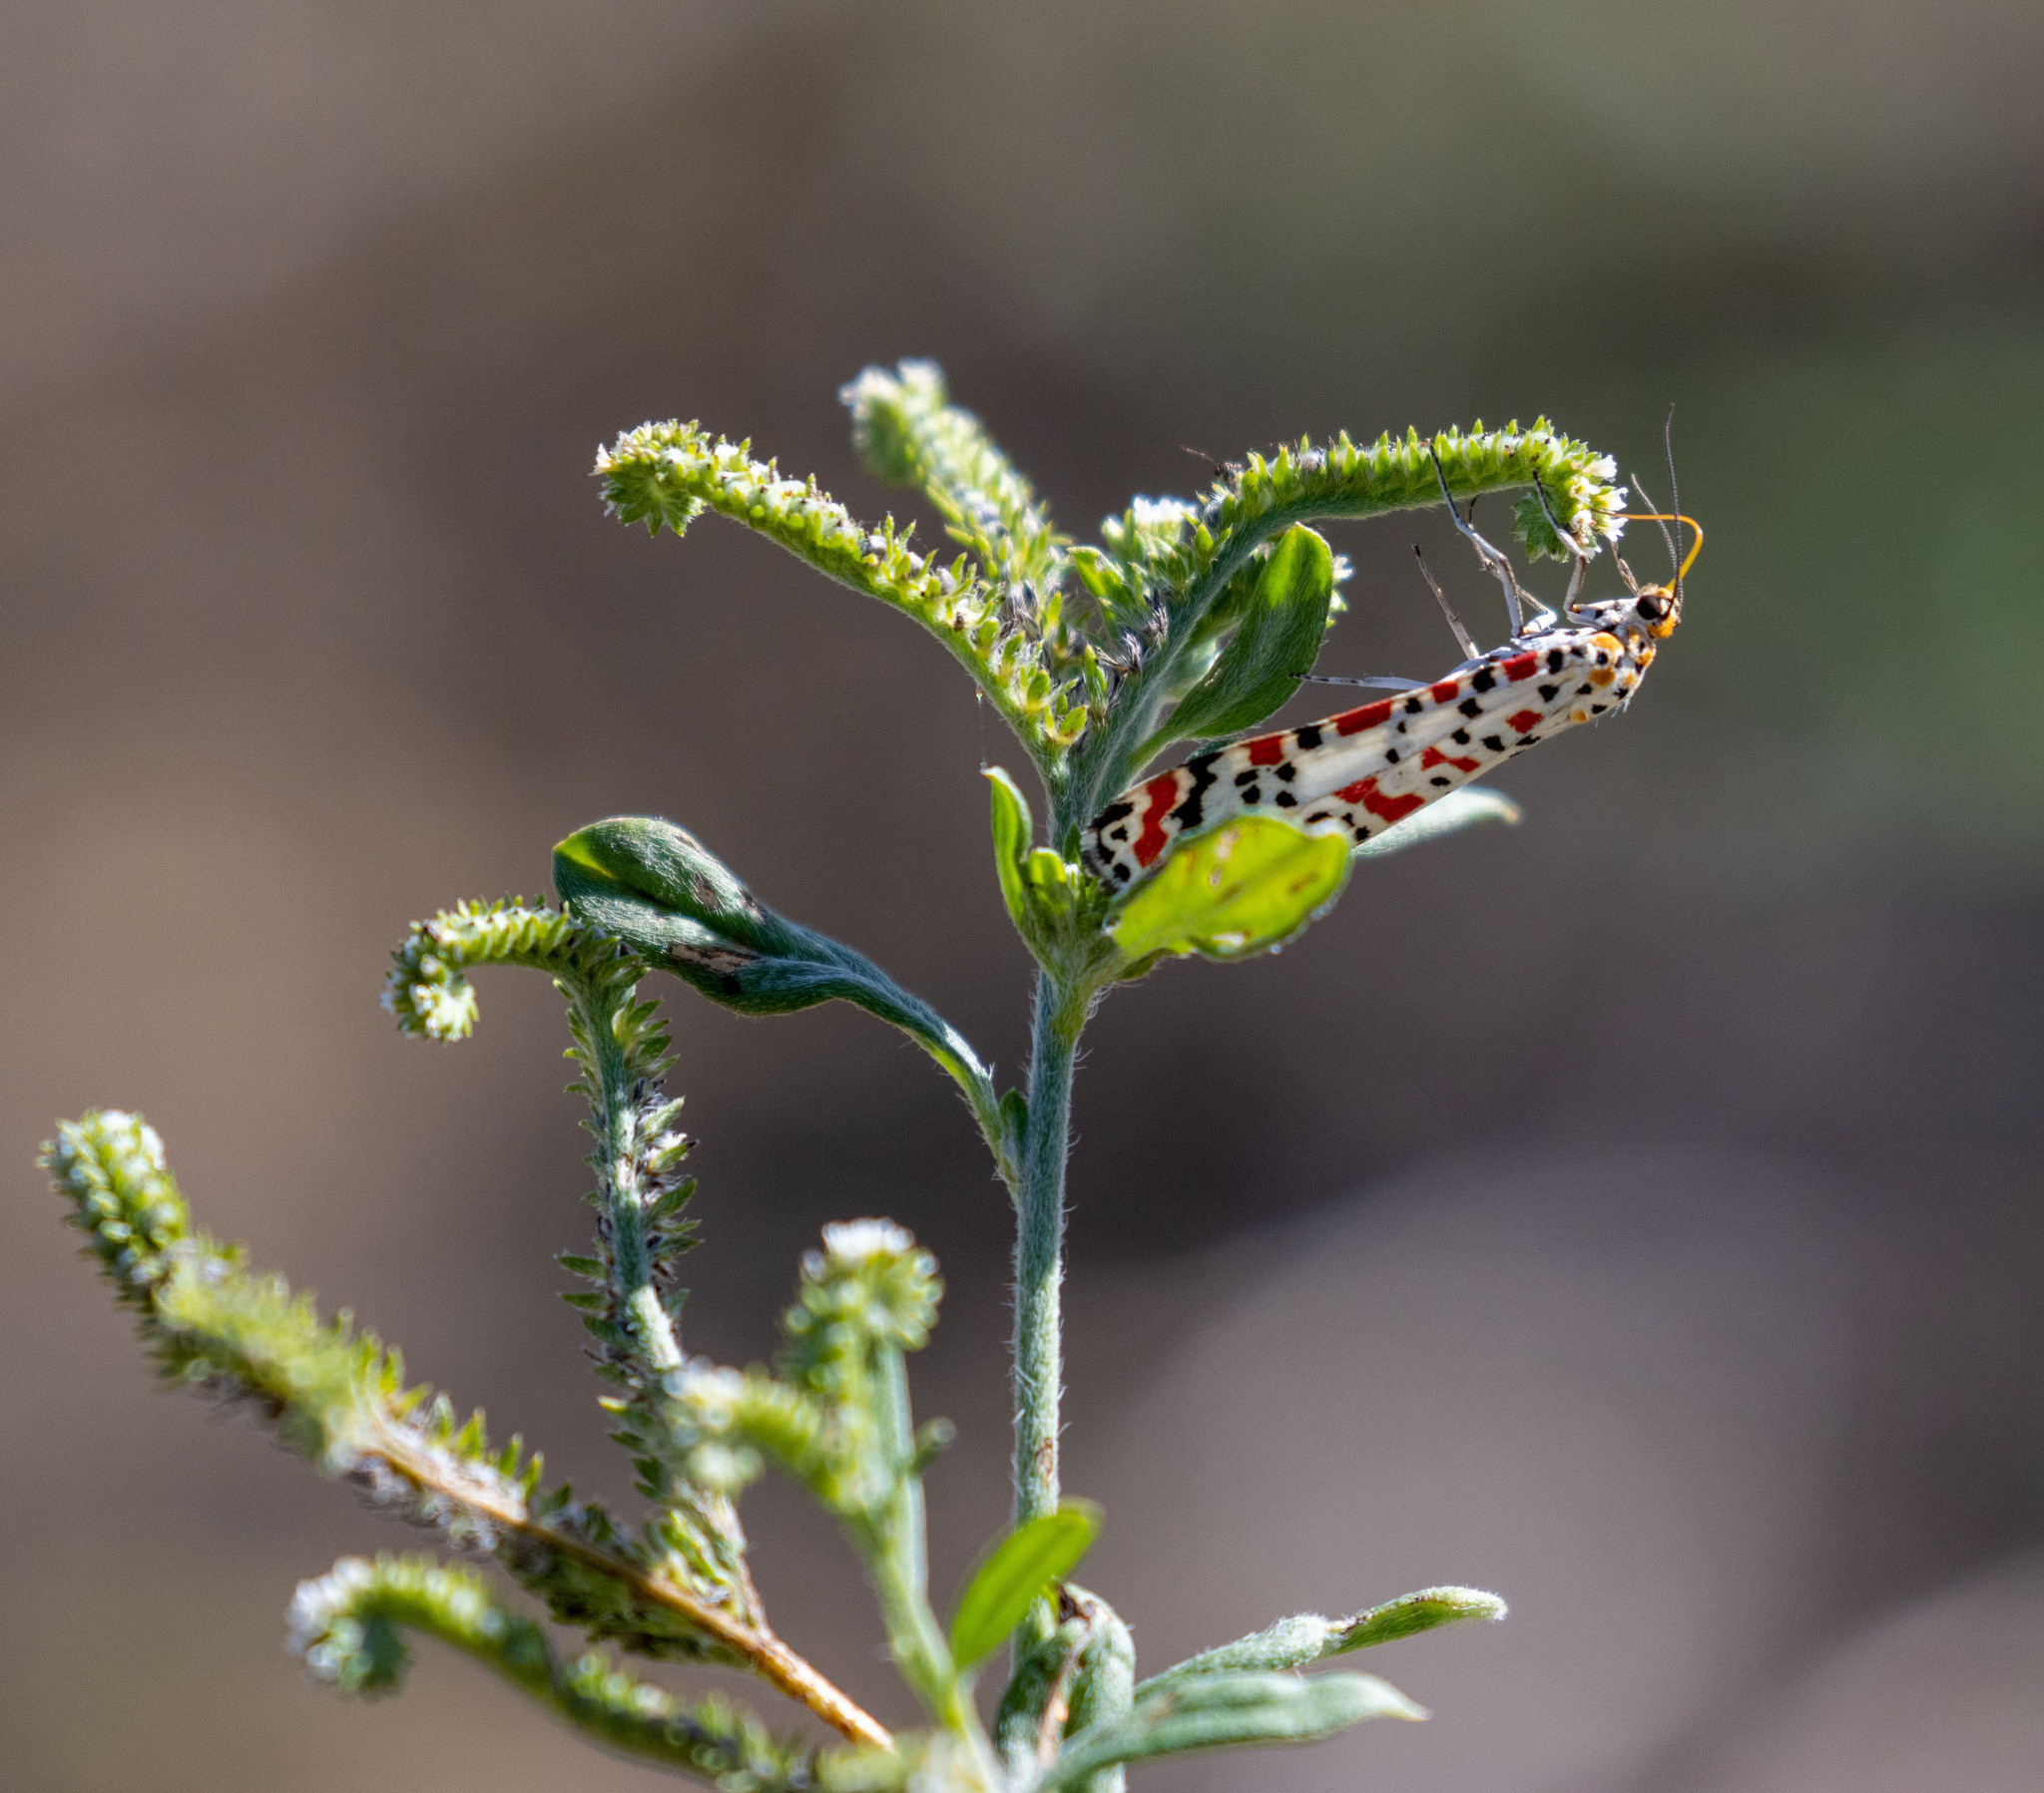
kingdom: Animalia
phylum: Arthropoda
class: Insecta
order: Lepidoptera
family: Erebidae
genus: Utetheisa
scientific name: Utetheisa pulchella
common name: Crimson speckled
